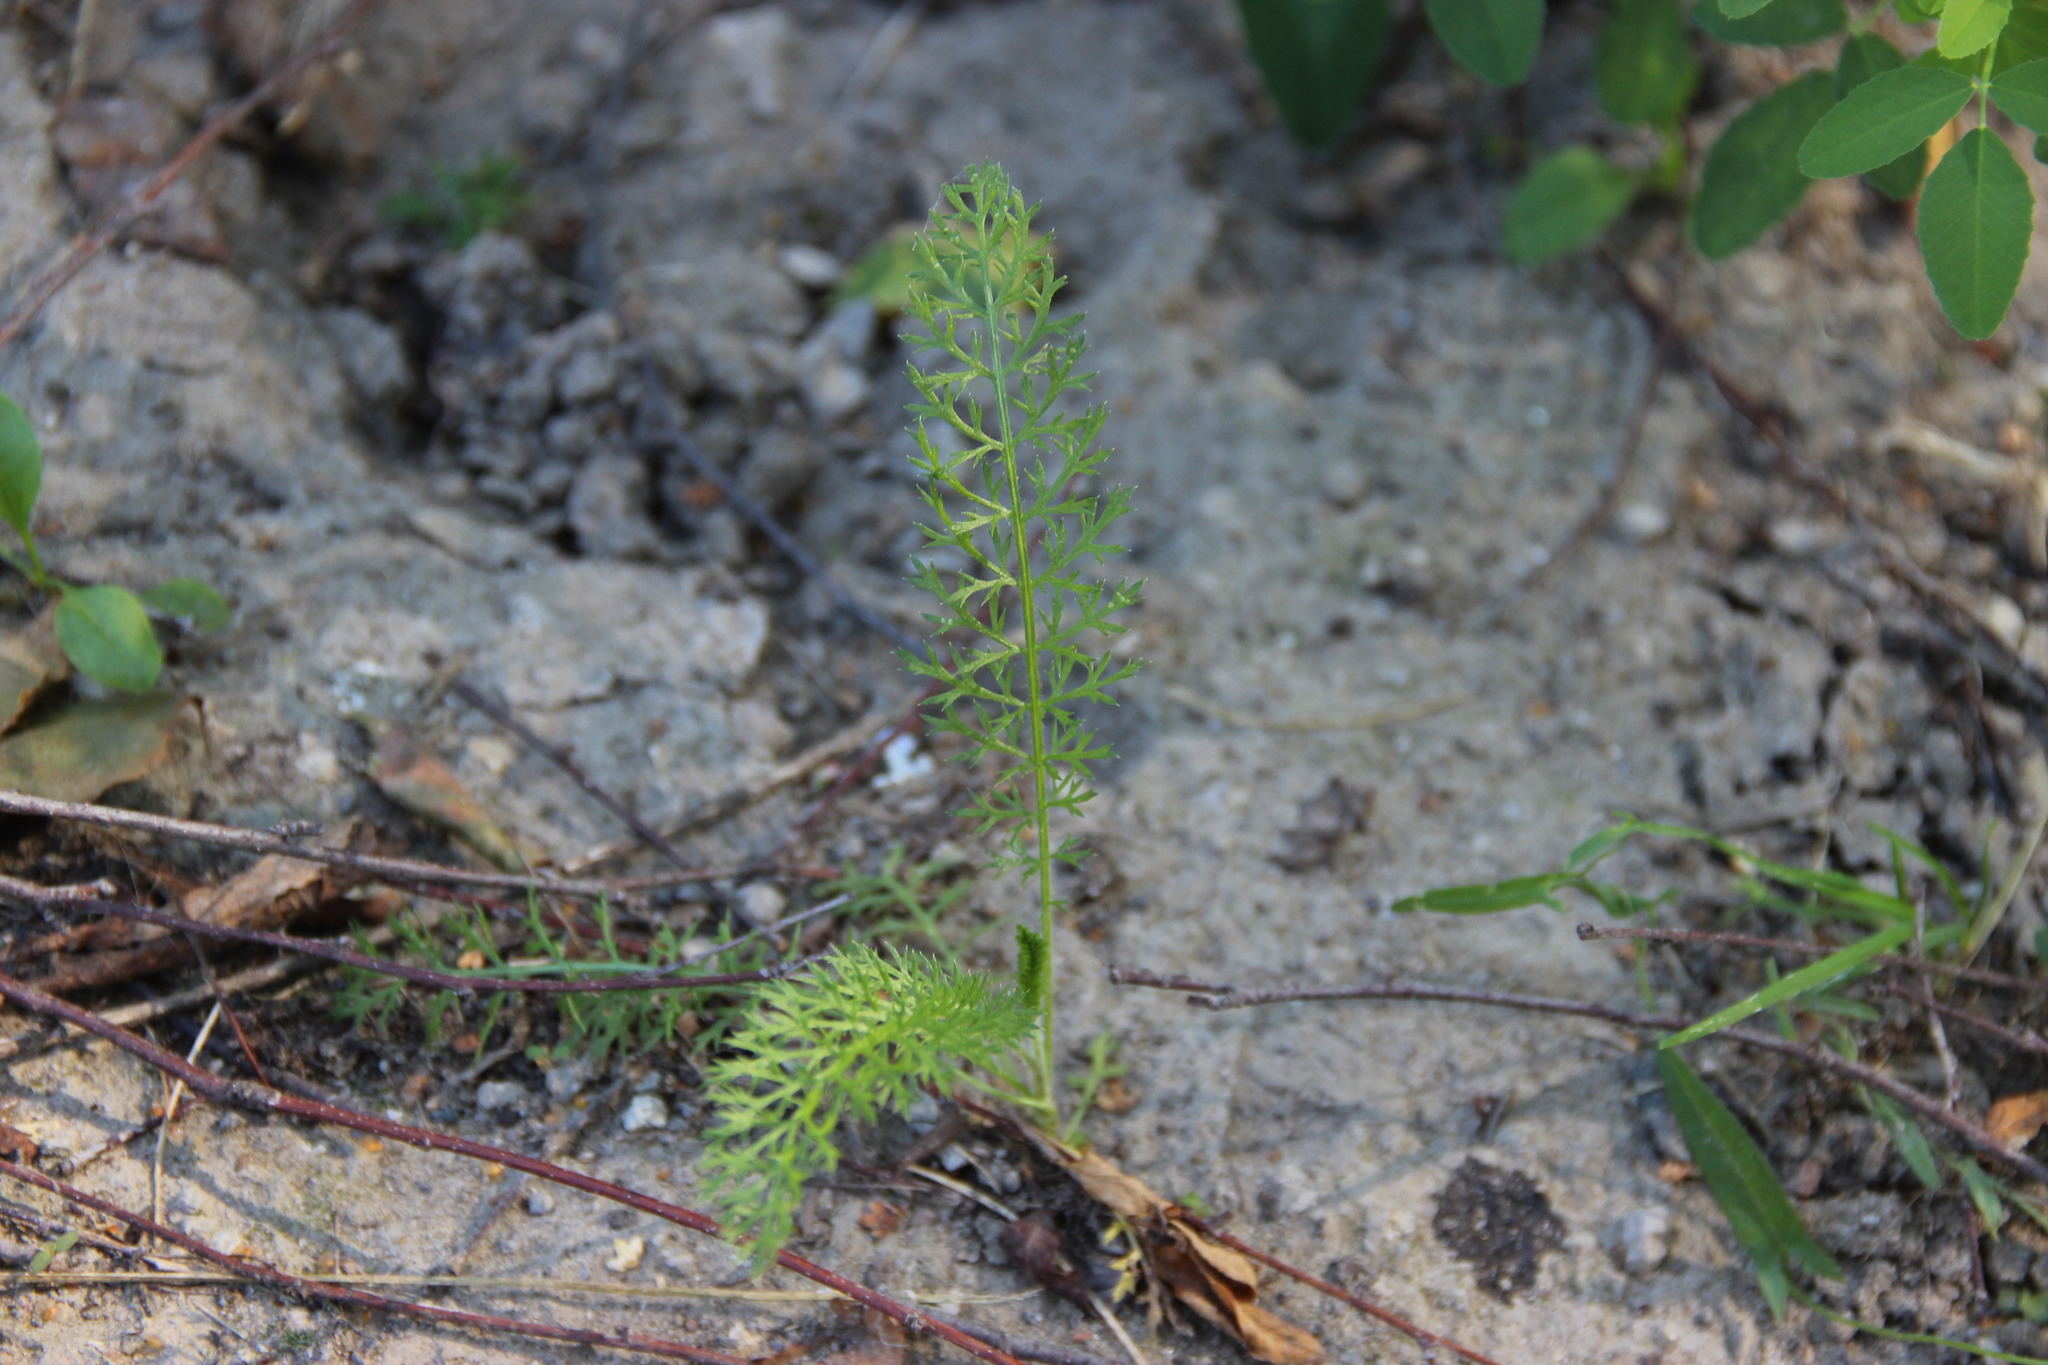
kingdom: Plantae
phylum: Tracheophyta
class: Magnoliopsida
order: Asterales
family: Asteraceae
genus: Achillea
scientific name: Achillea millefolium
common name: Yarrow
